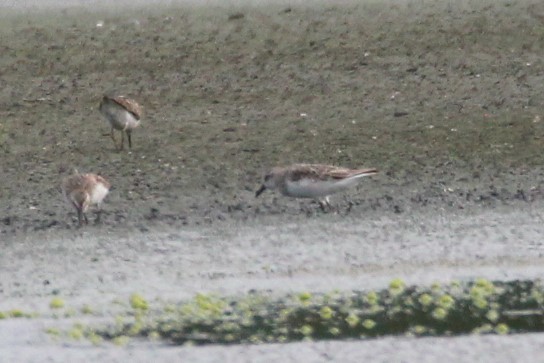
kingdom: Animalia
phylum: Chordata
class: Aves
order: Charadriiformes
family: Scolopacidae
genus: Calidris
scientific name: Calidris pusilla
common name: Semipalmated sandpiper
